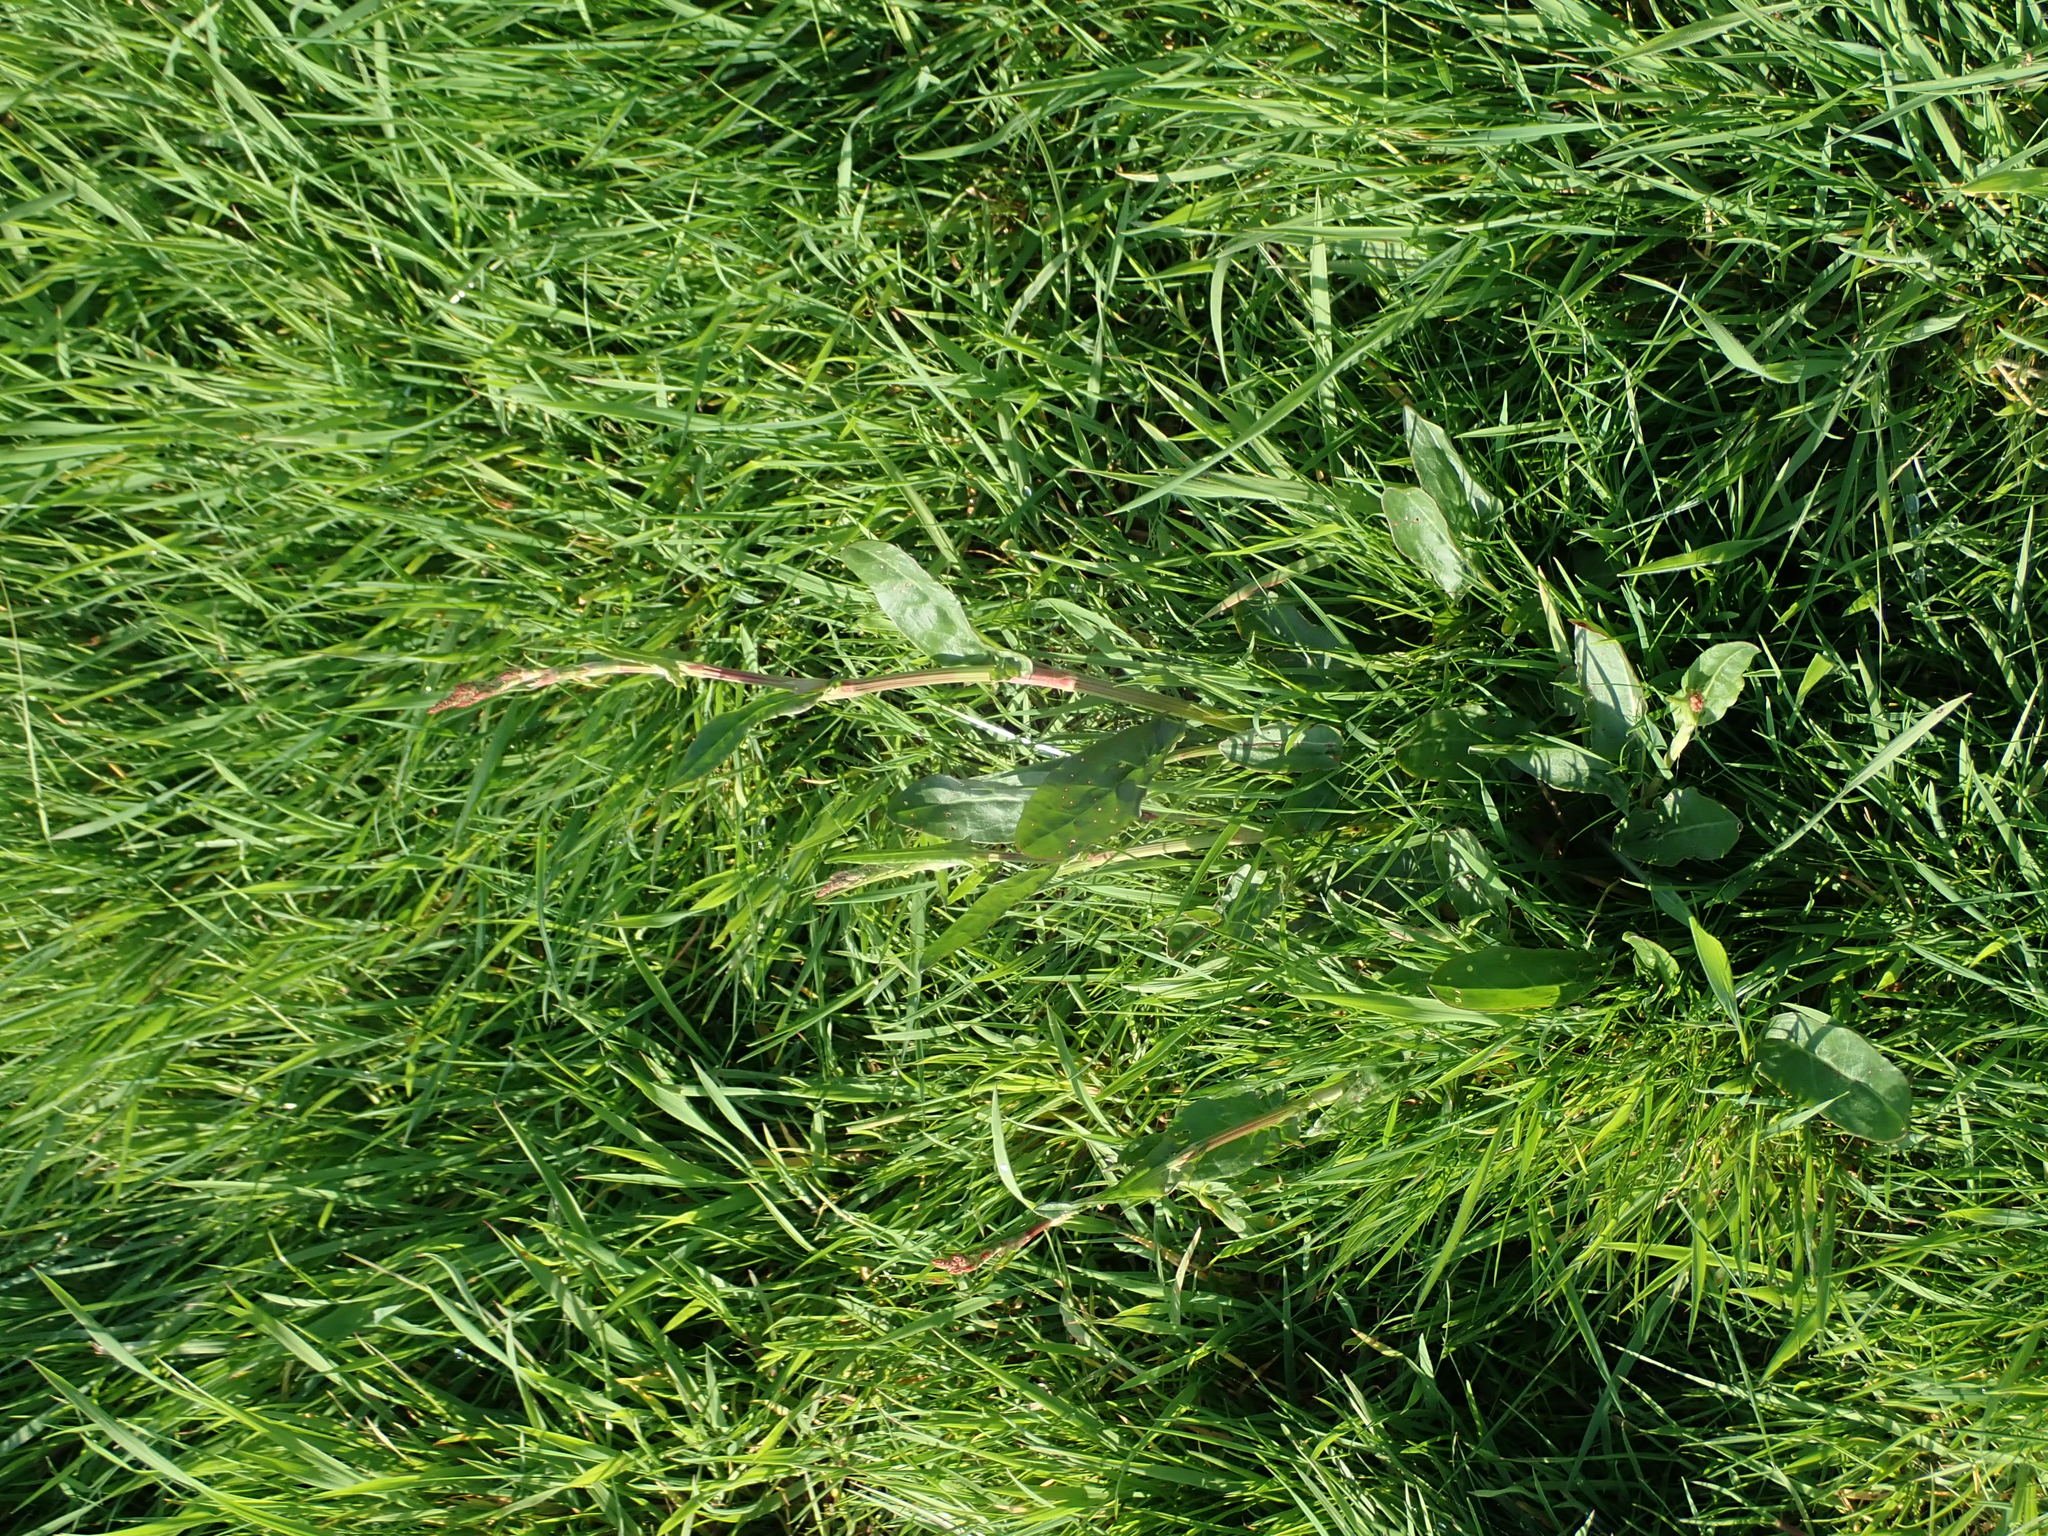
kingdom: Plantae
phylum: Tracheophyta
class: Magnoliopsida
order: Caryophyllales
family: Polygonaceae
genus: Rumex
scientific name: Rumex acetosa
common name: Garden sorrel
